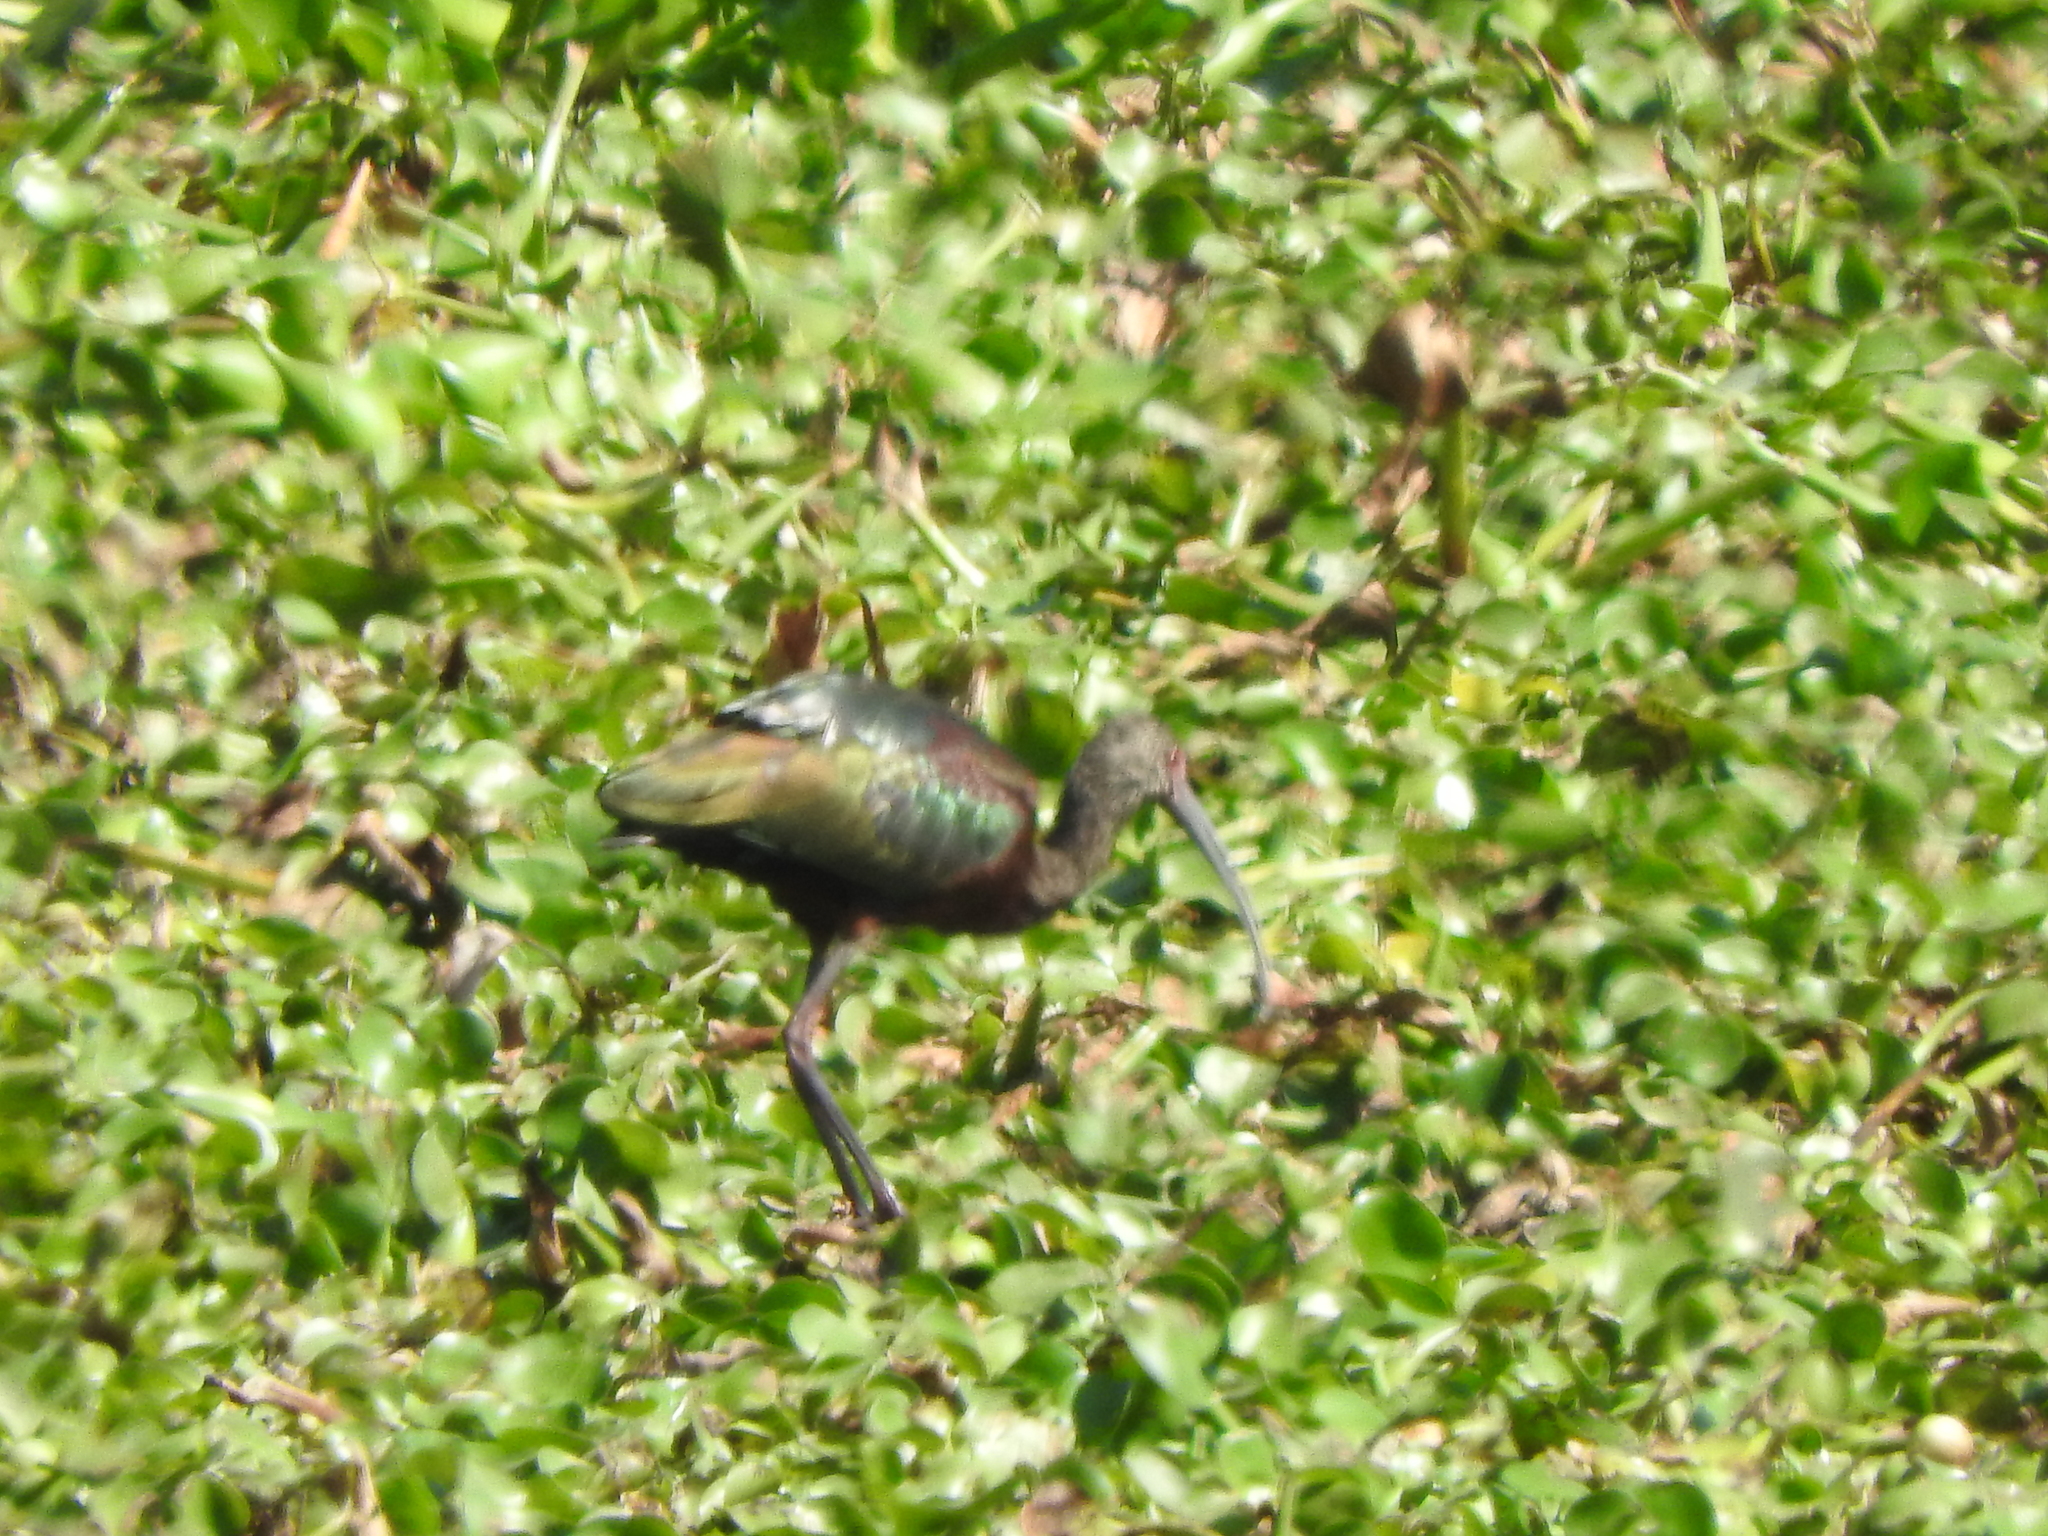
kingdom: Animalia
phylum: Chordata
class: Aves
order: Pelecaniformes
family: Threskiornithidae
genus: Plegadis
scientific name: Plegadis chihi
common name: White-faced ibis
